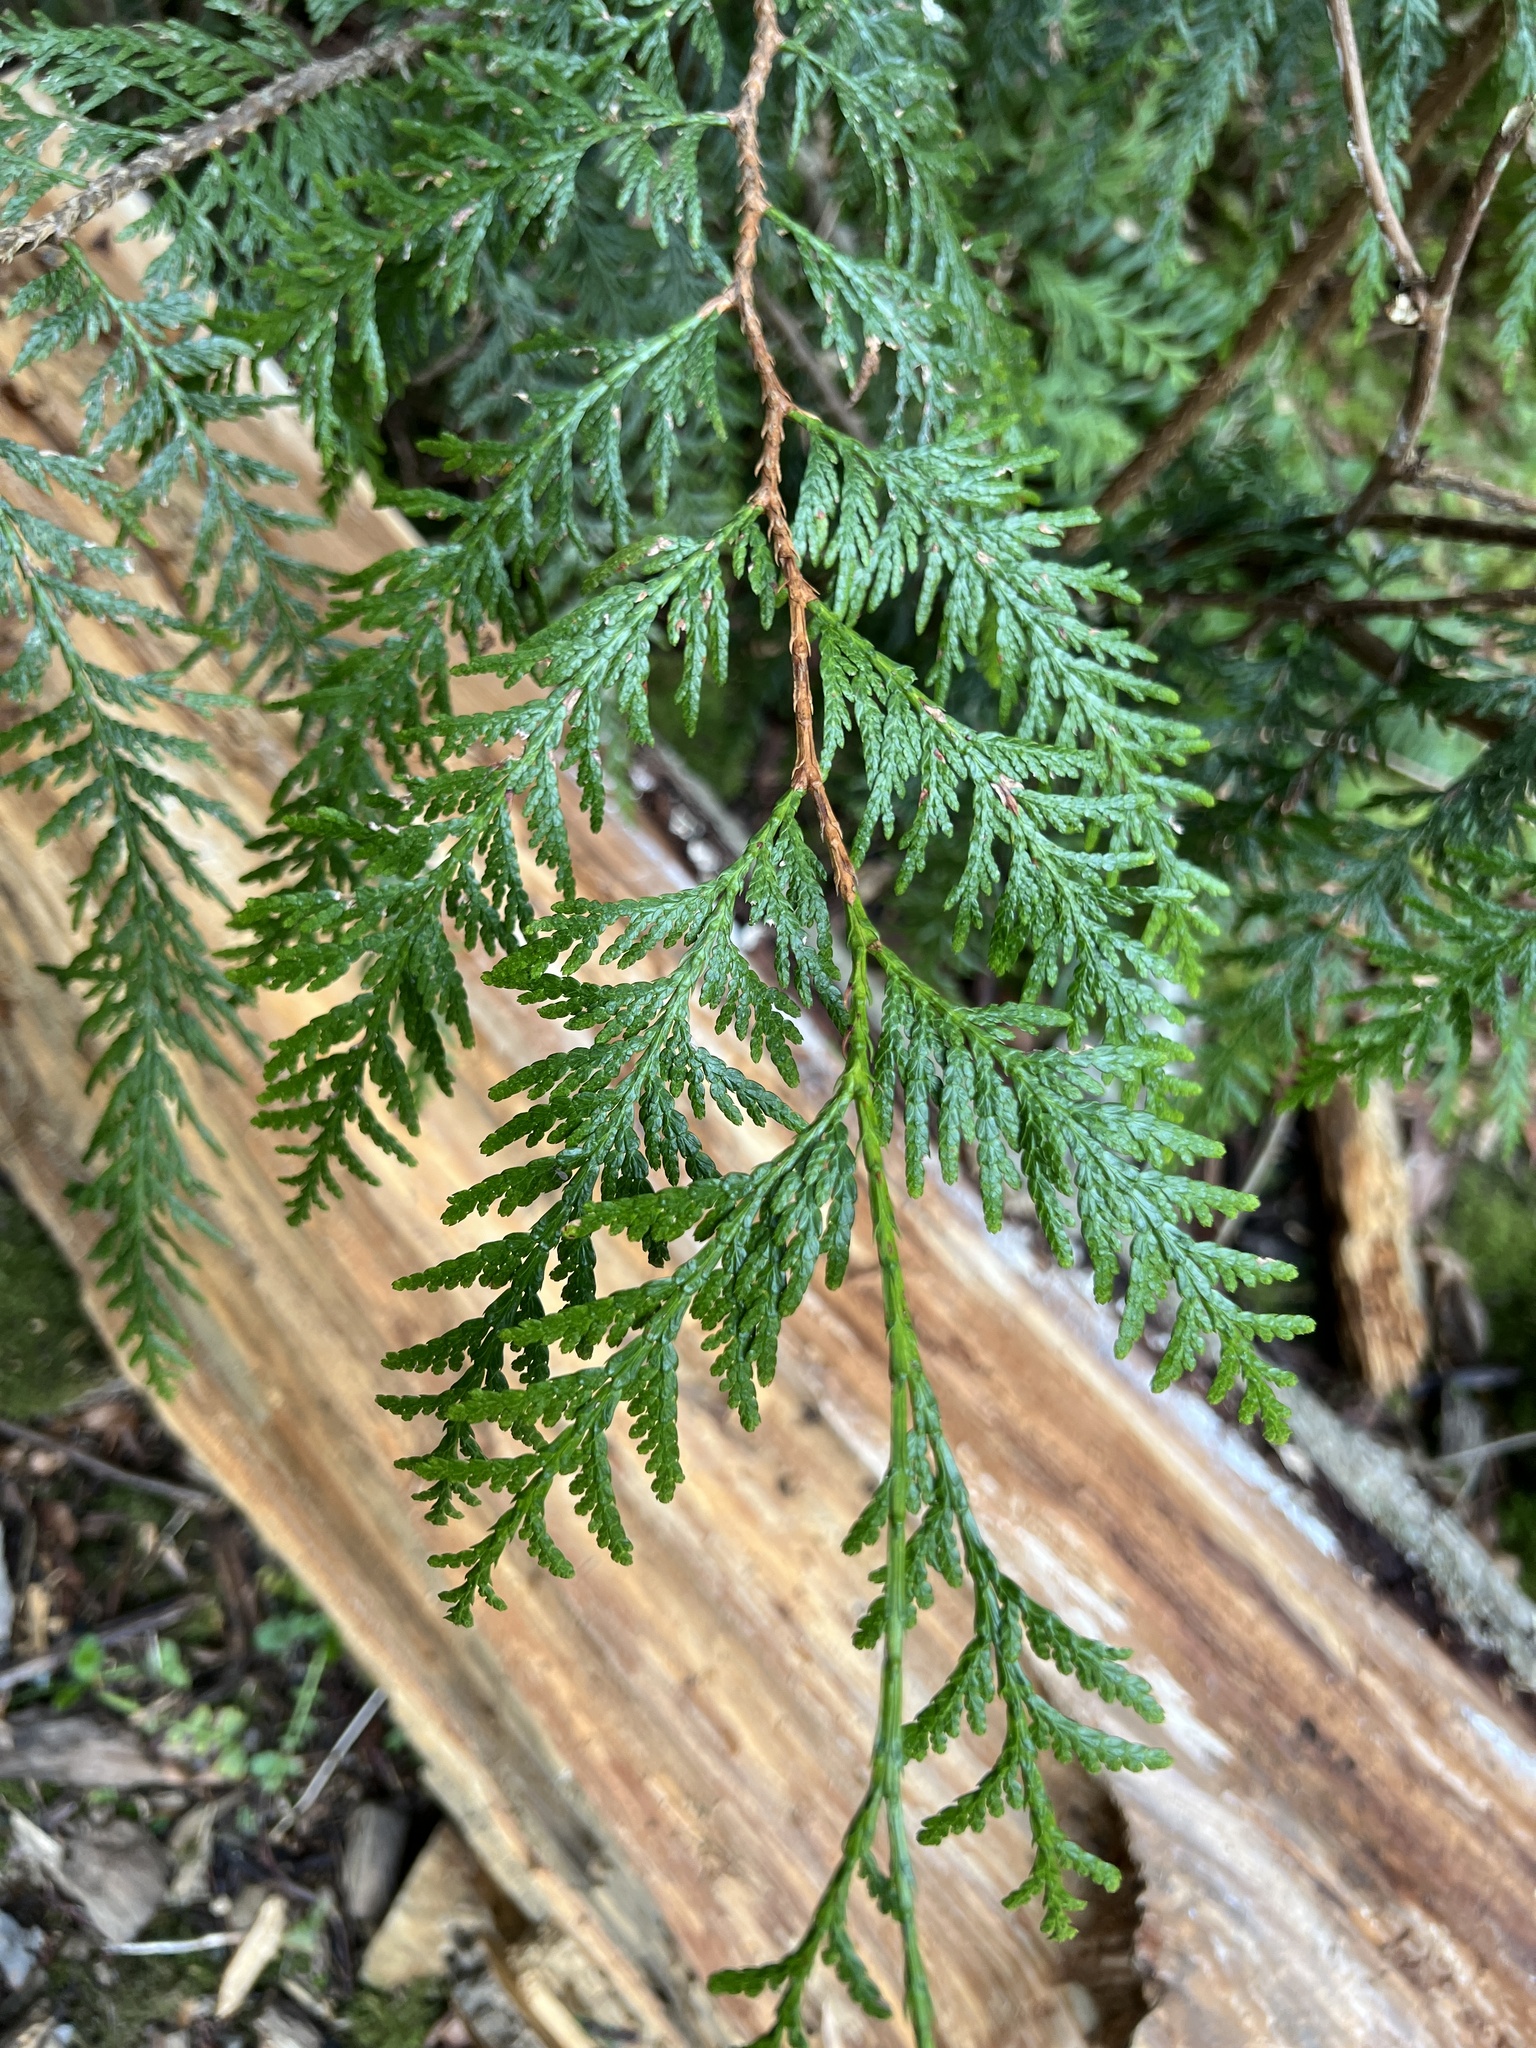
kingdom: Plantae
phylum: Tracheophyta
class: Pinopsida
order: Pinales
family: Cupressaceae
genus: Thuja
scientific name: Thuja plicata
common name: Western red-cedar
